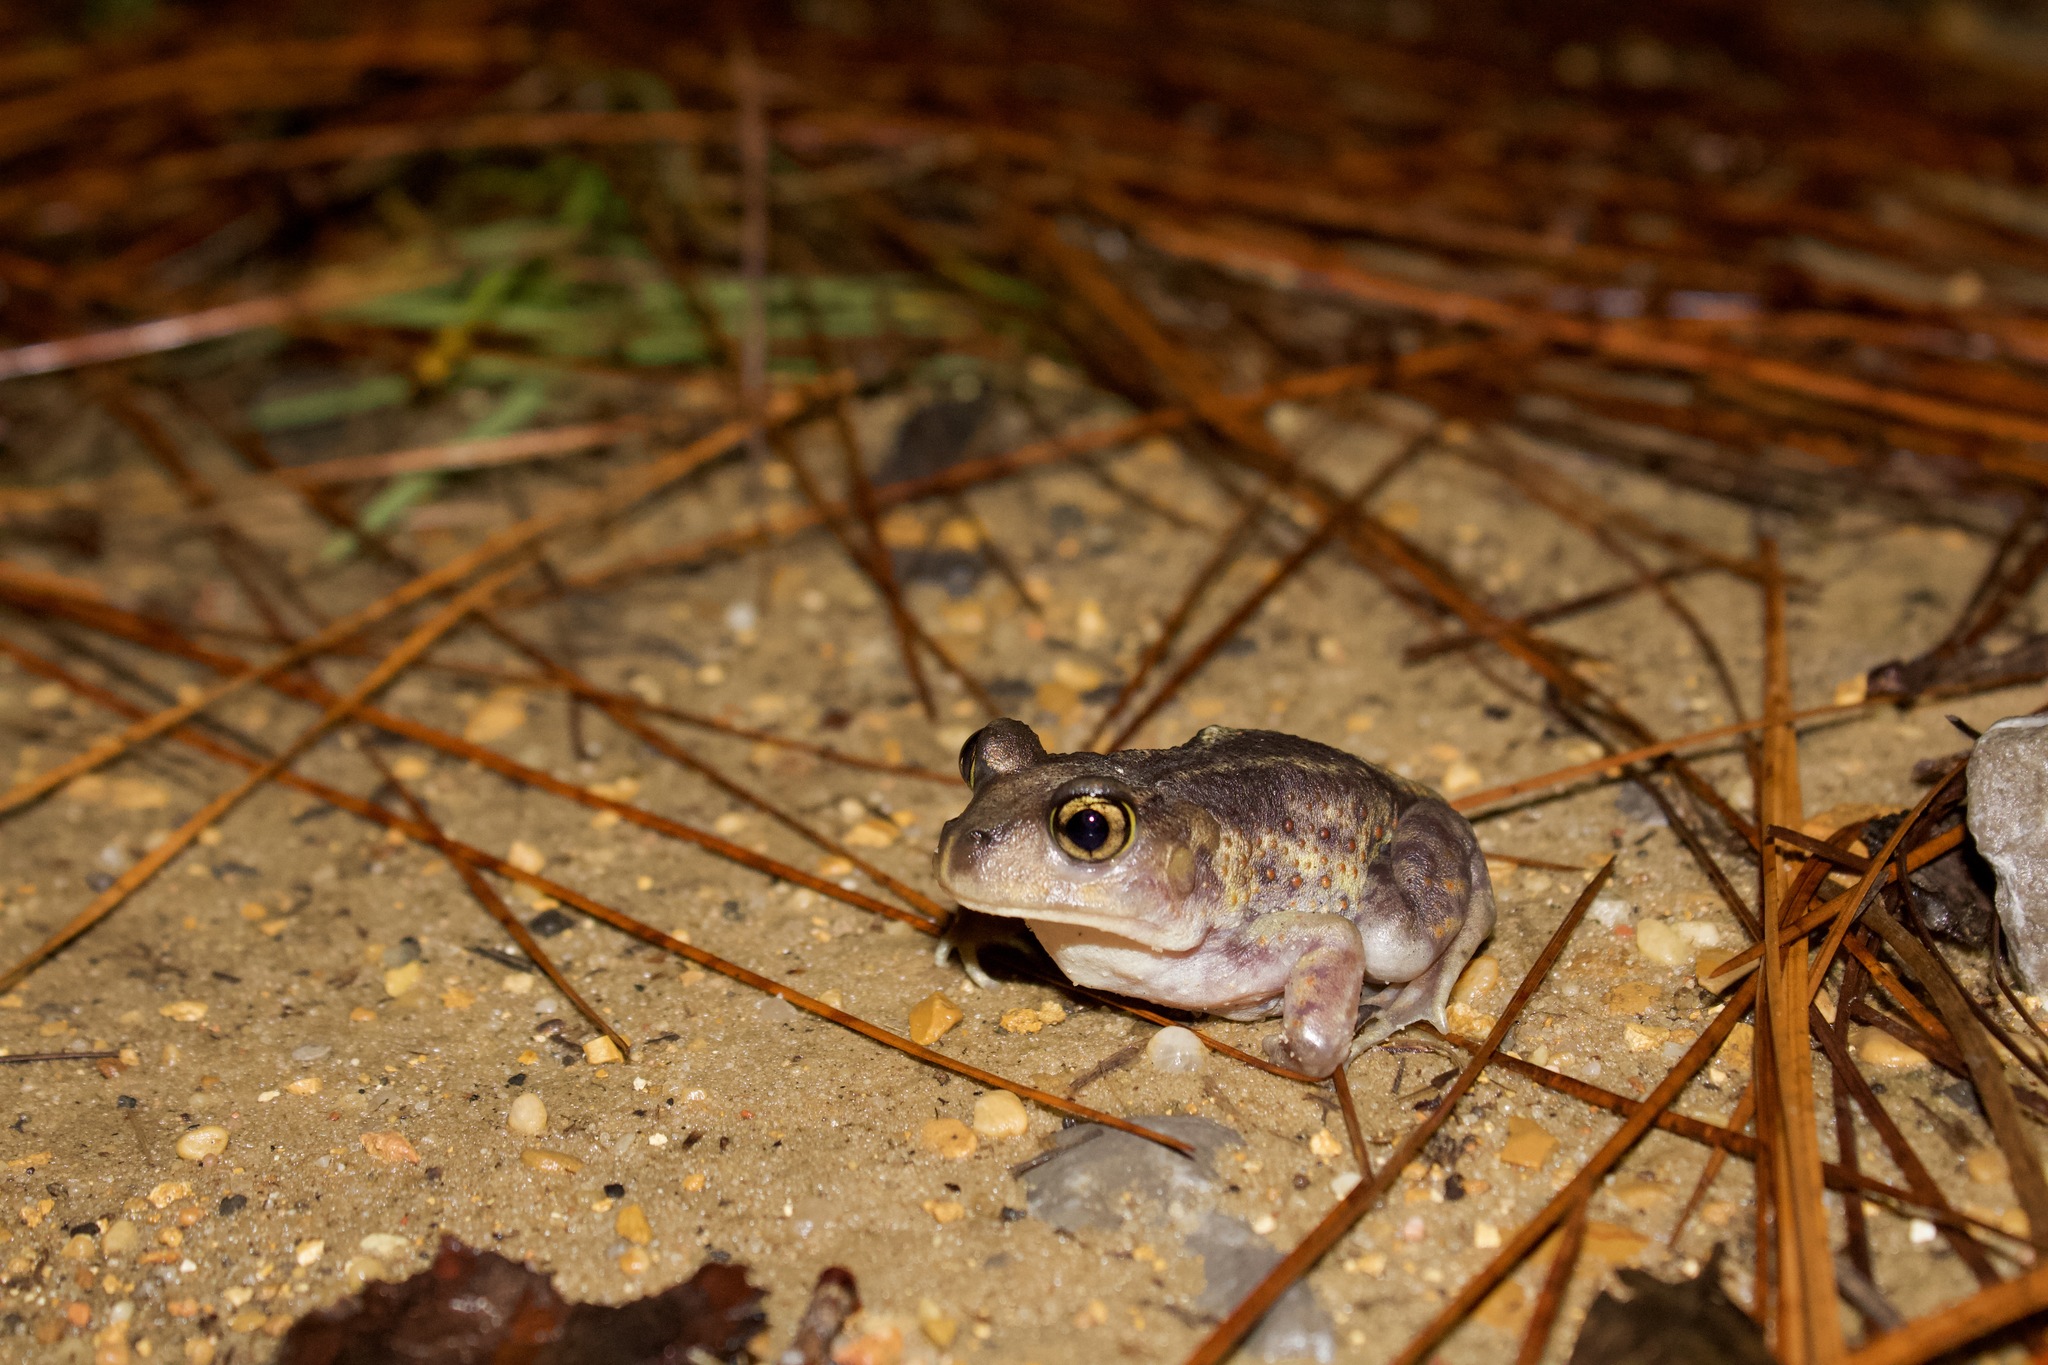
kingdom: Animalia
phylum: Chordata
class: Amphibia
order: Anura
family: Scaphiopodidae
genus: Scaphiopus
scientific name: Scaphiopus holbrookii
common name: Eastern spadefoot toad
